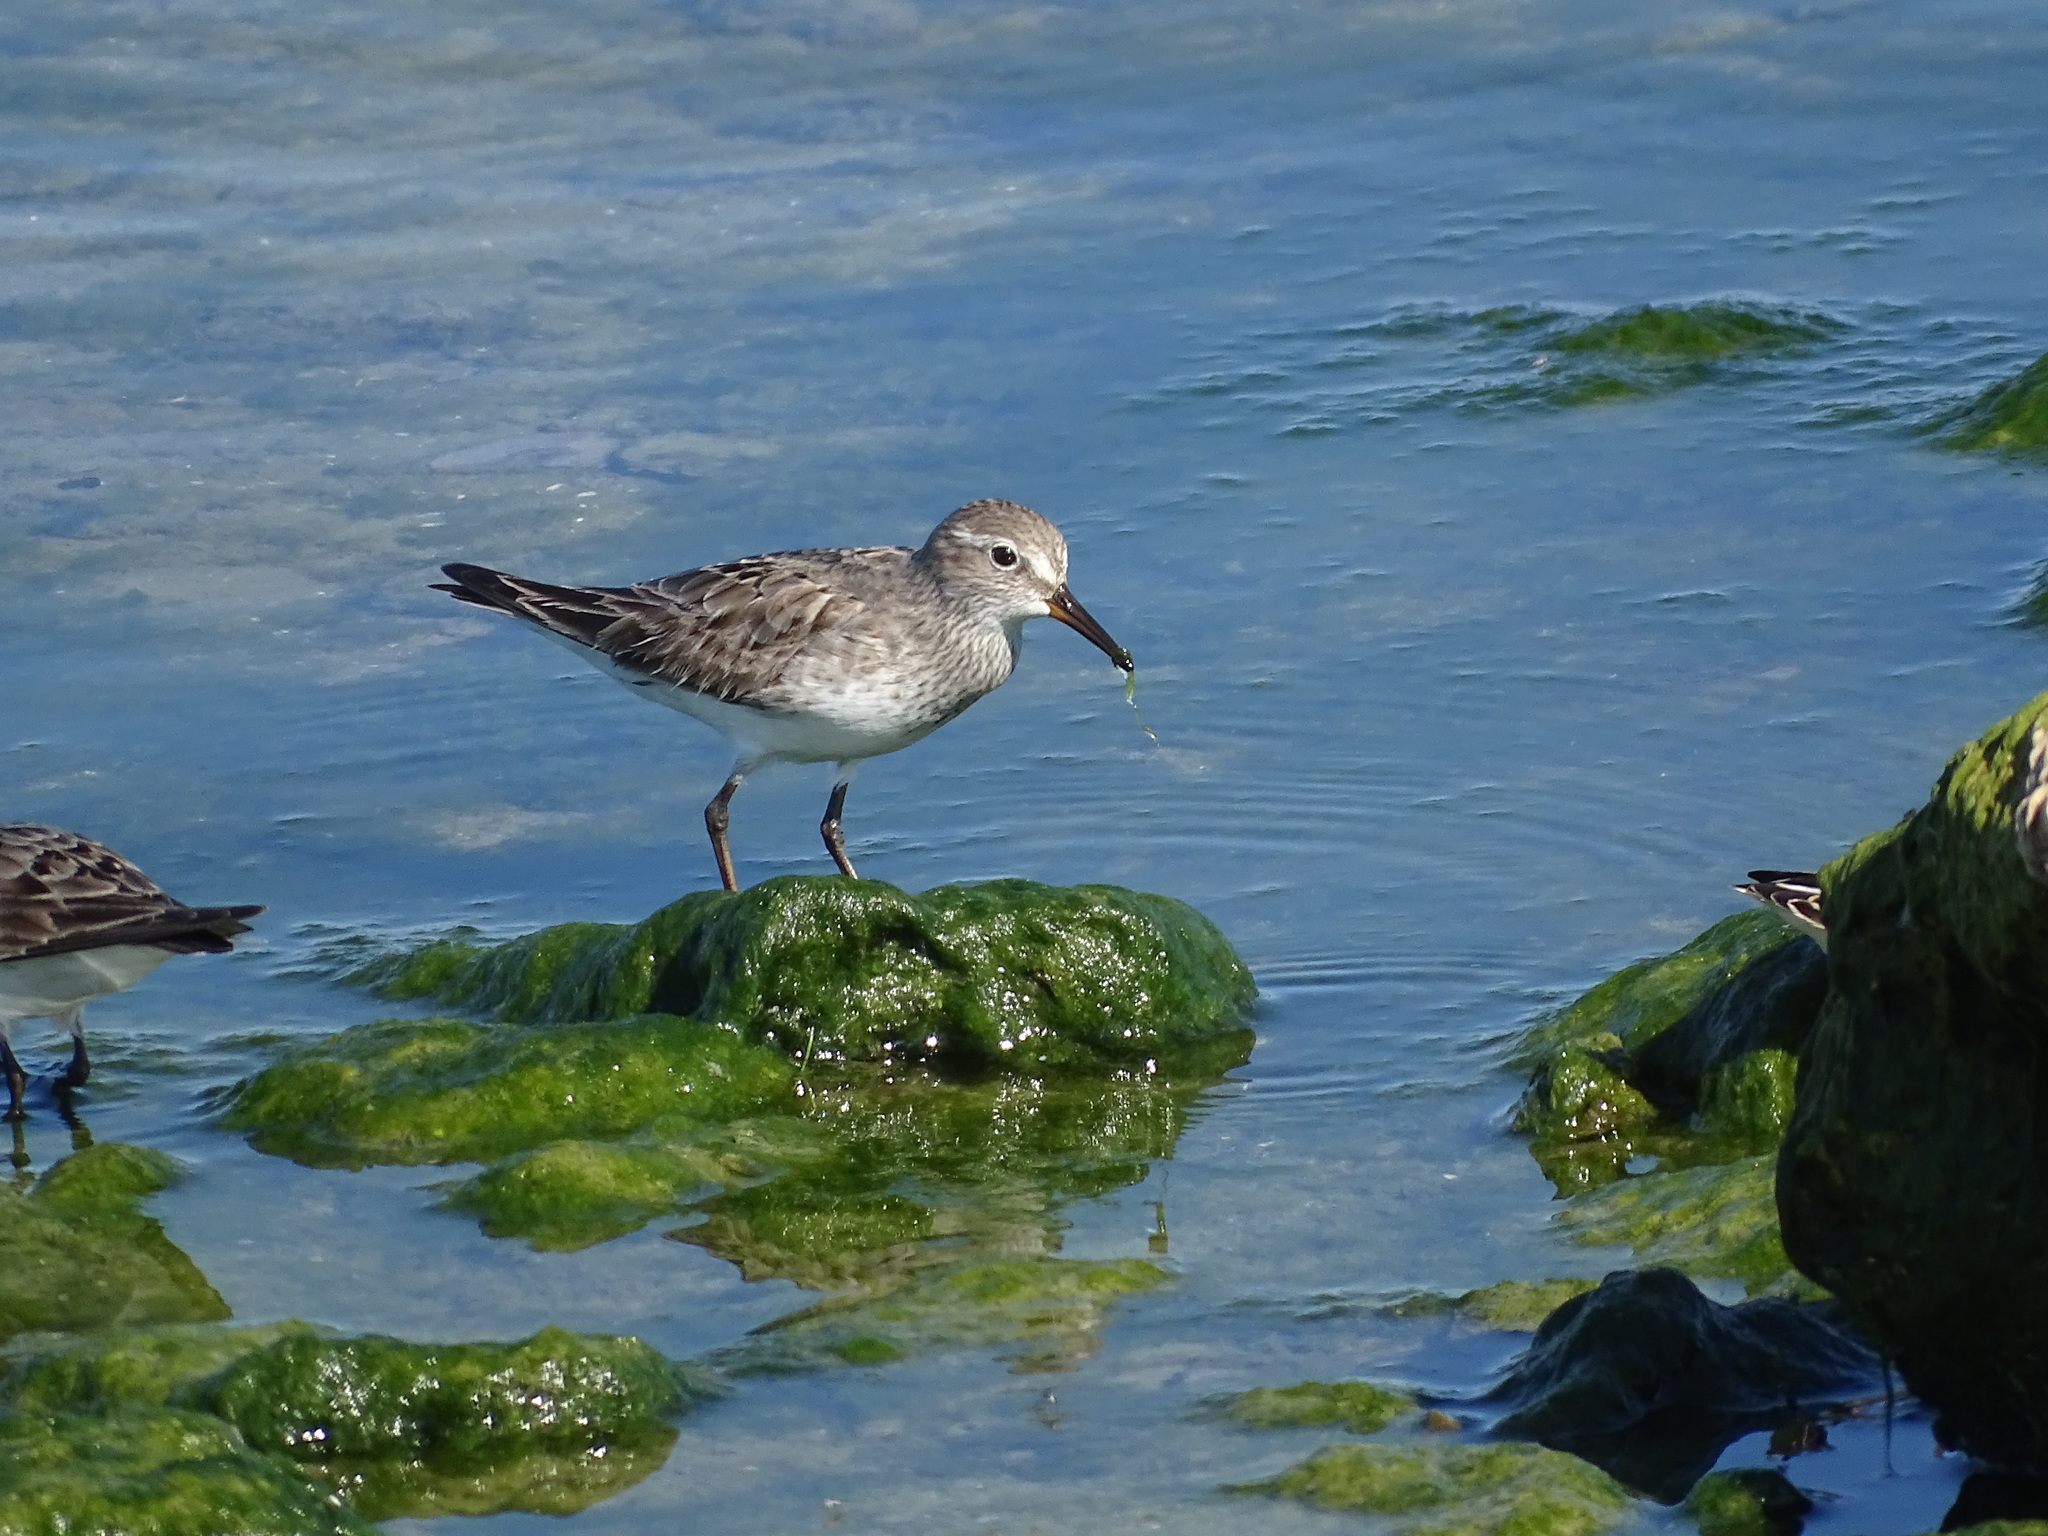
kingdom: Animalia
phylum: Chordata
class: Aves
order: Charadriiformes
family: Scolopacidae
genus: Calidris
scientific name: Calidris fuscicollis
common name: White-rumped sandpiper
